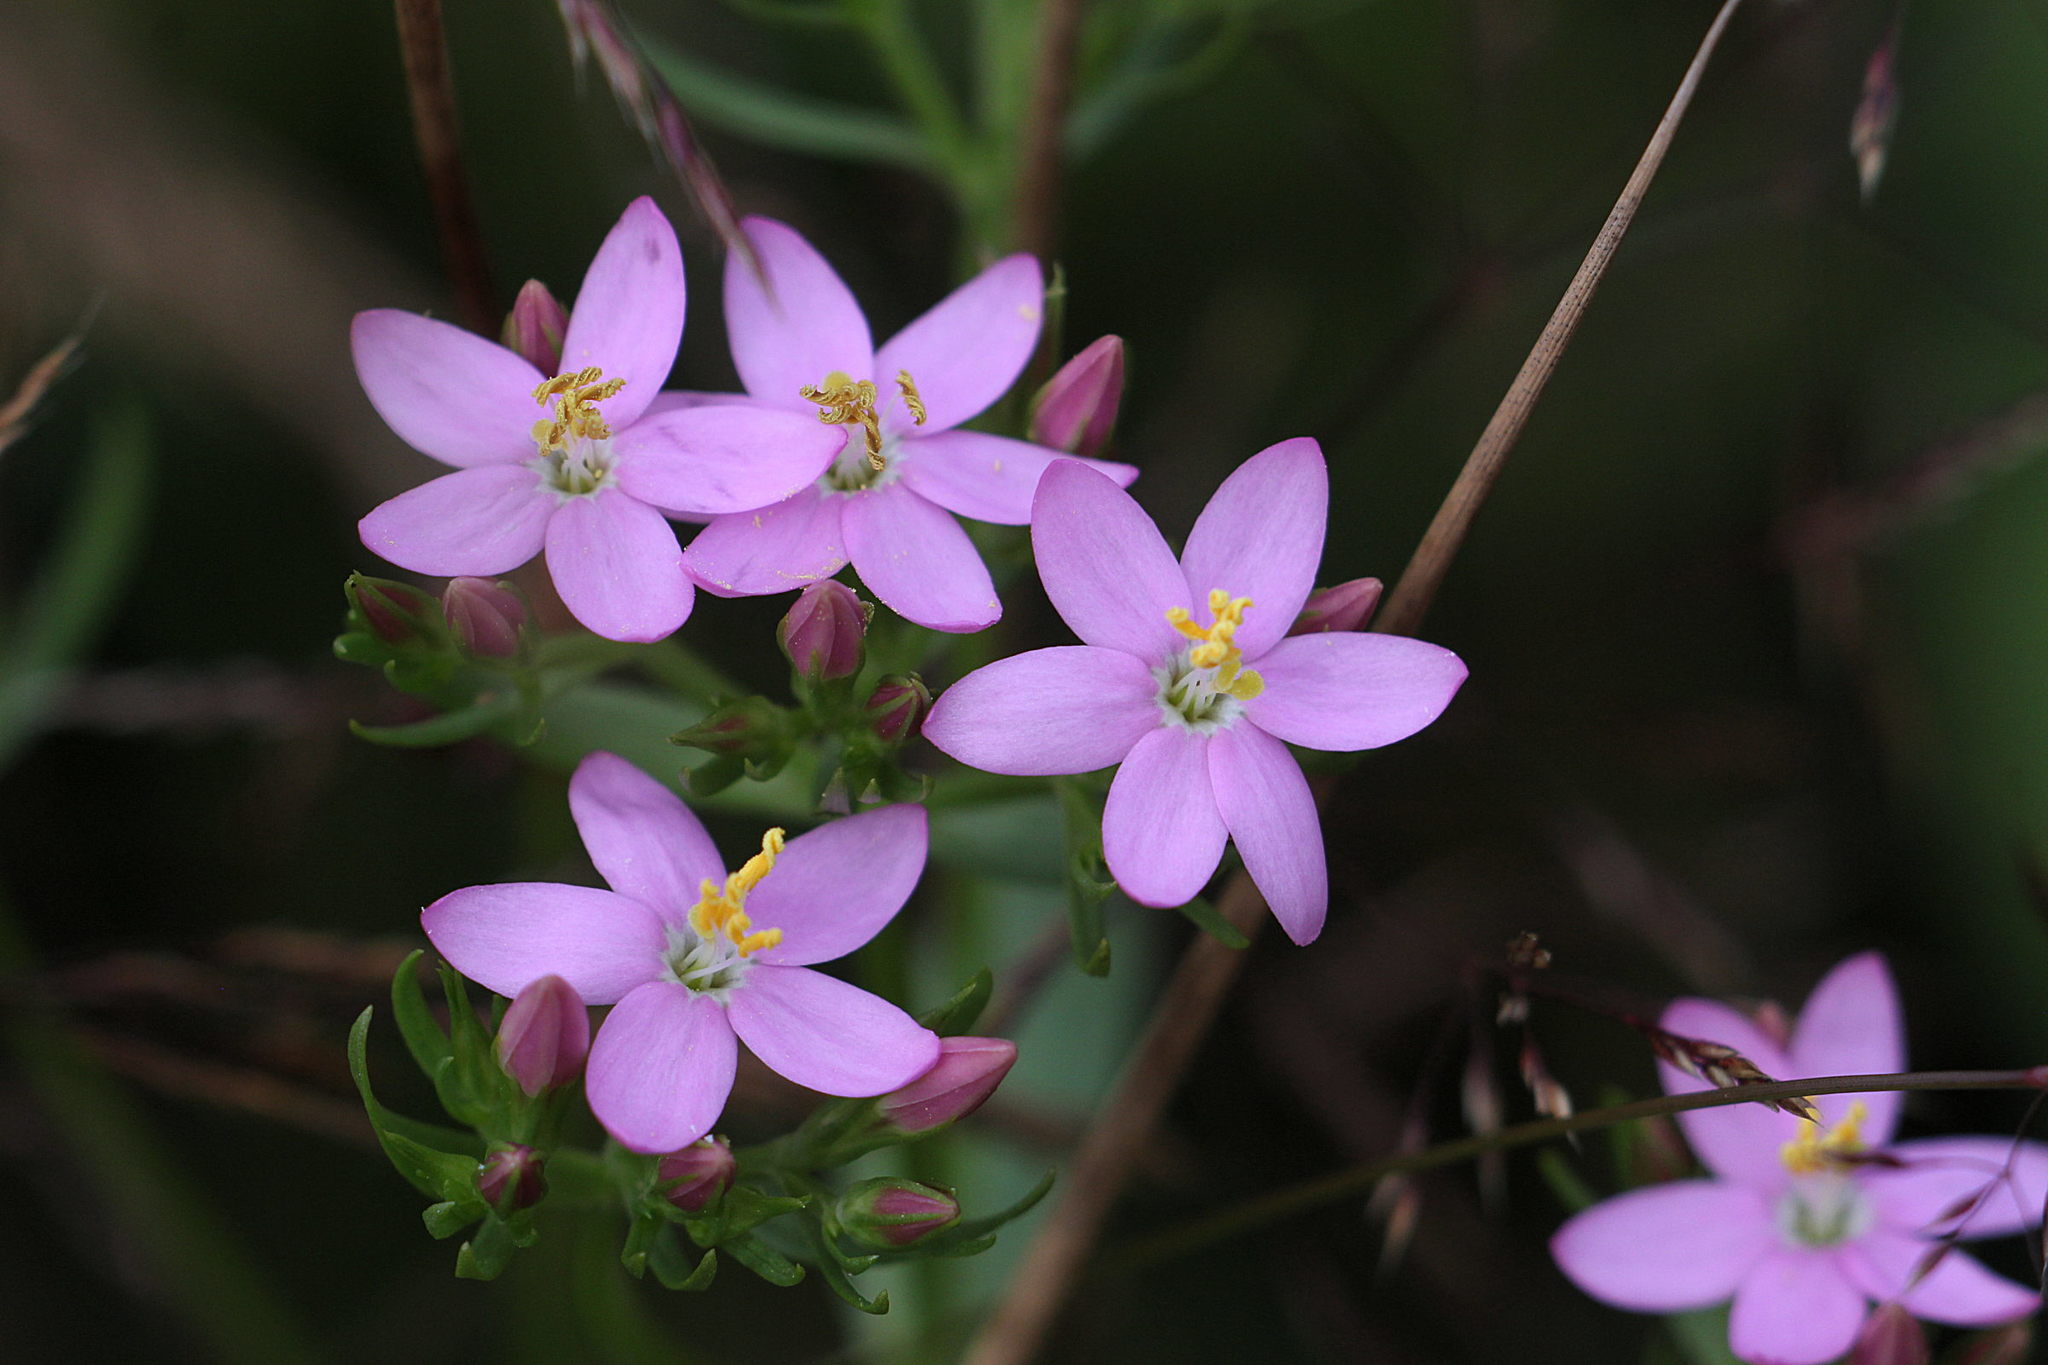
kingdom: Plantae
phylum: Tracheophyta
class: Magnoliopsida
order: Gentianales
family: Gentianaceae
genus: Centaurium
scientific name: Centaurium erythraea
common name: Common centaury
